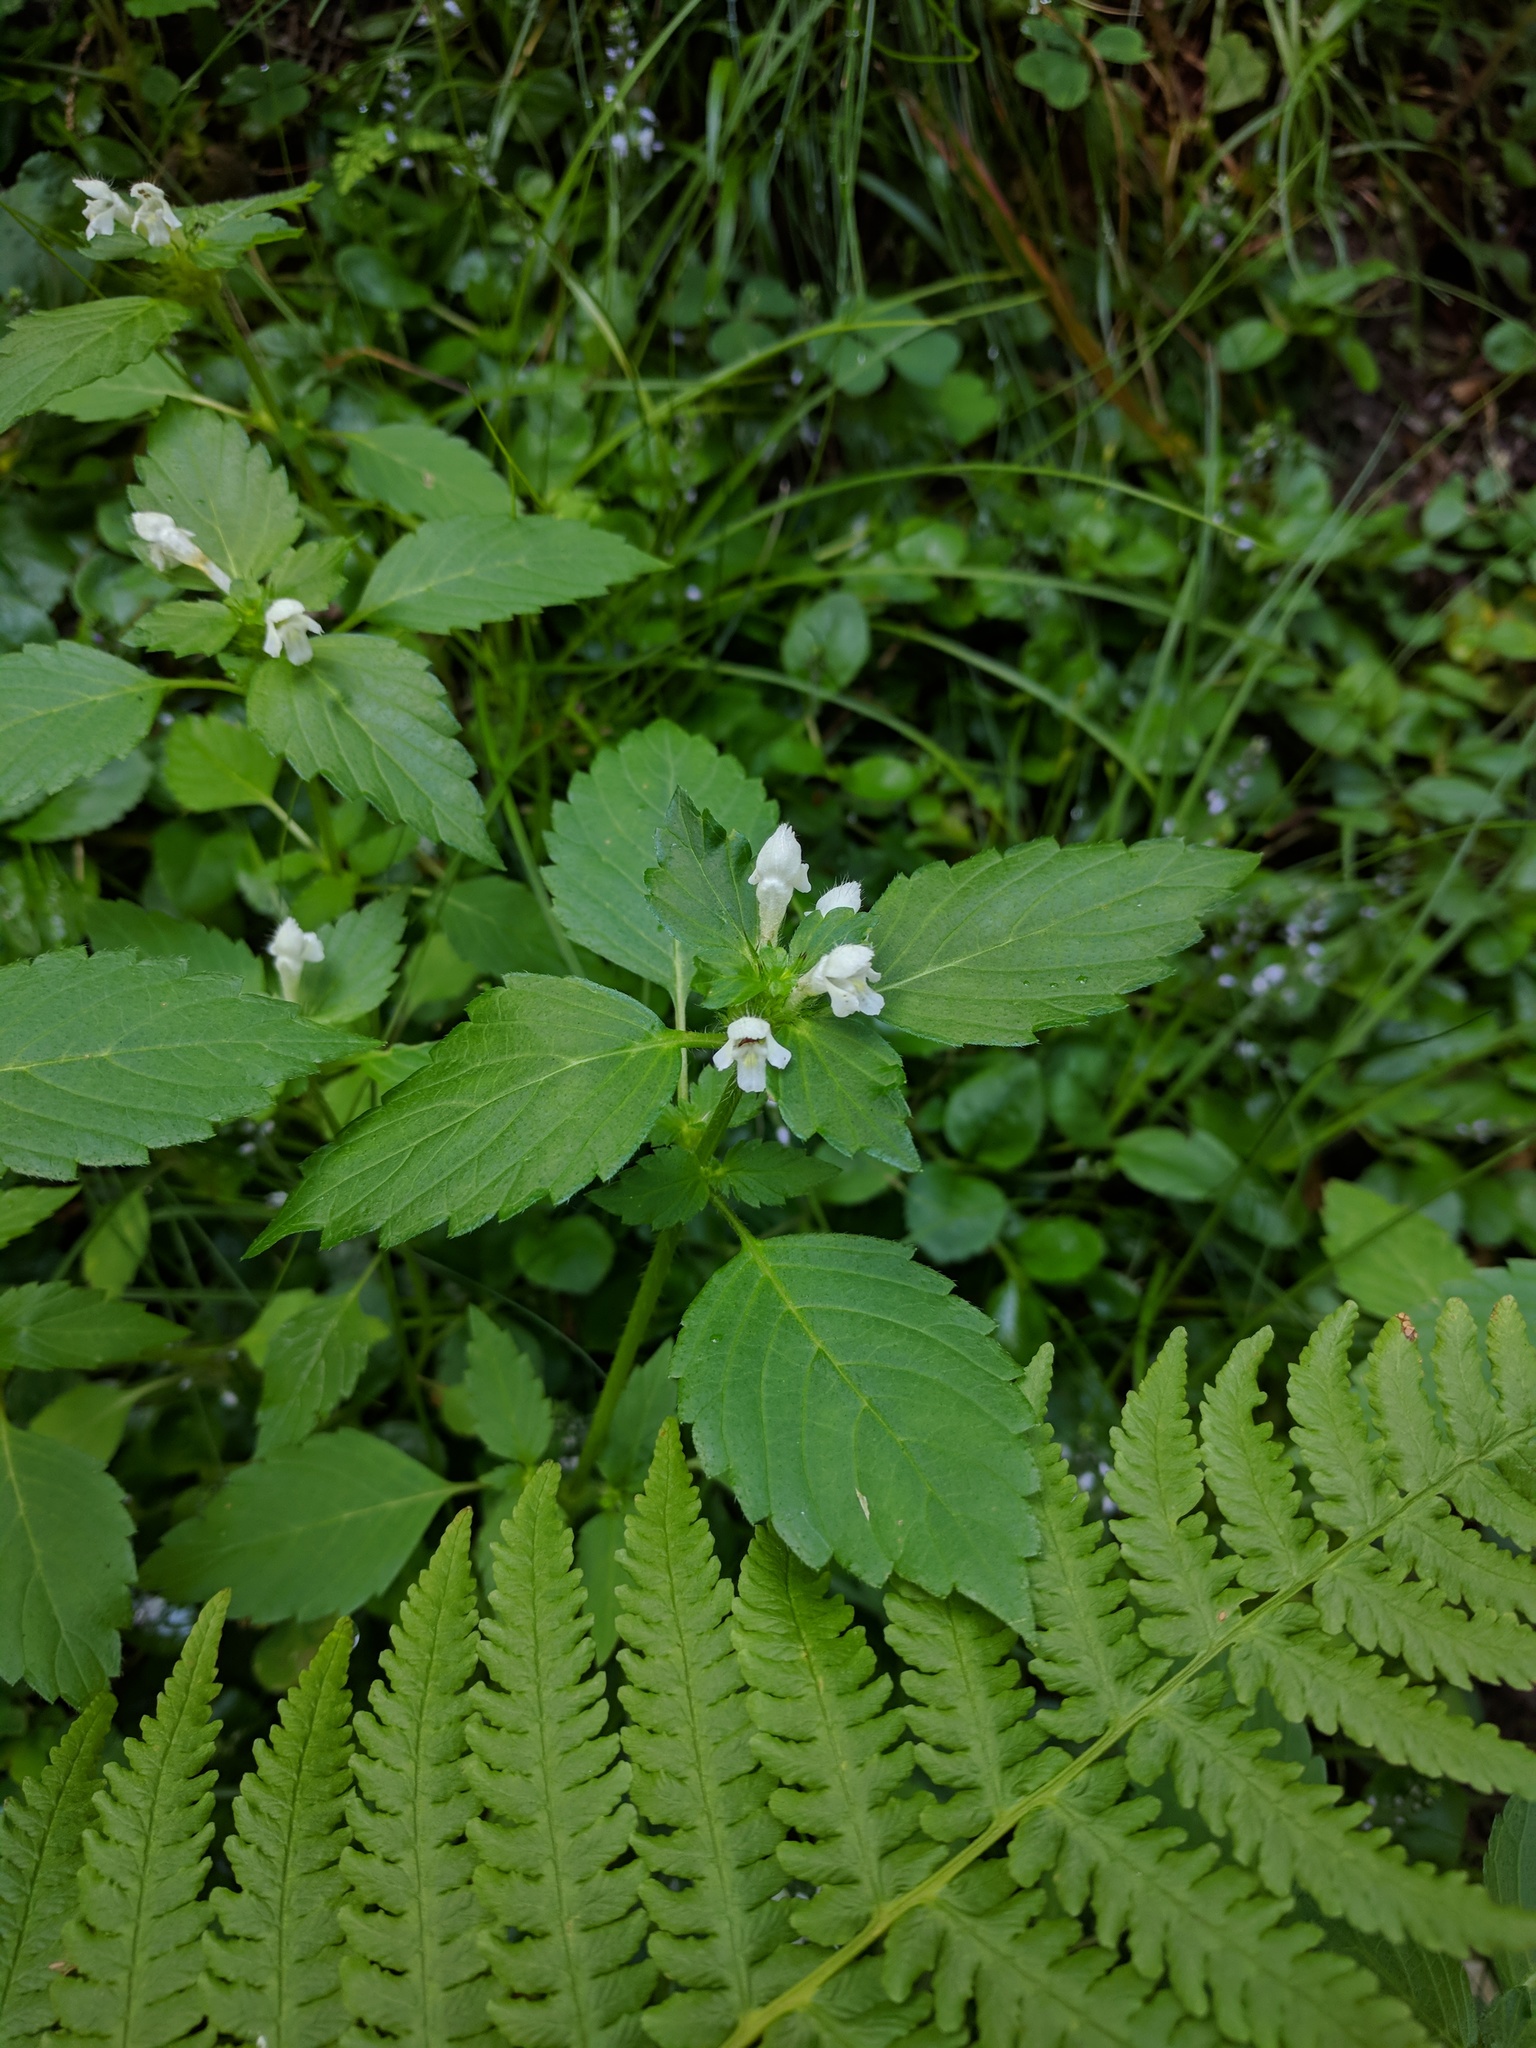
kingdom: Plantae
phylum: Tracheophyta
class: Magnoliopsida
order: Lamiales
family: Lamiaceae
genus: Galeopsis
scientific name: Galeopsis tetrahit
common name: Common hemp-nettle
